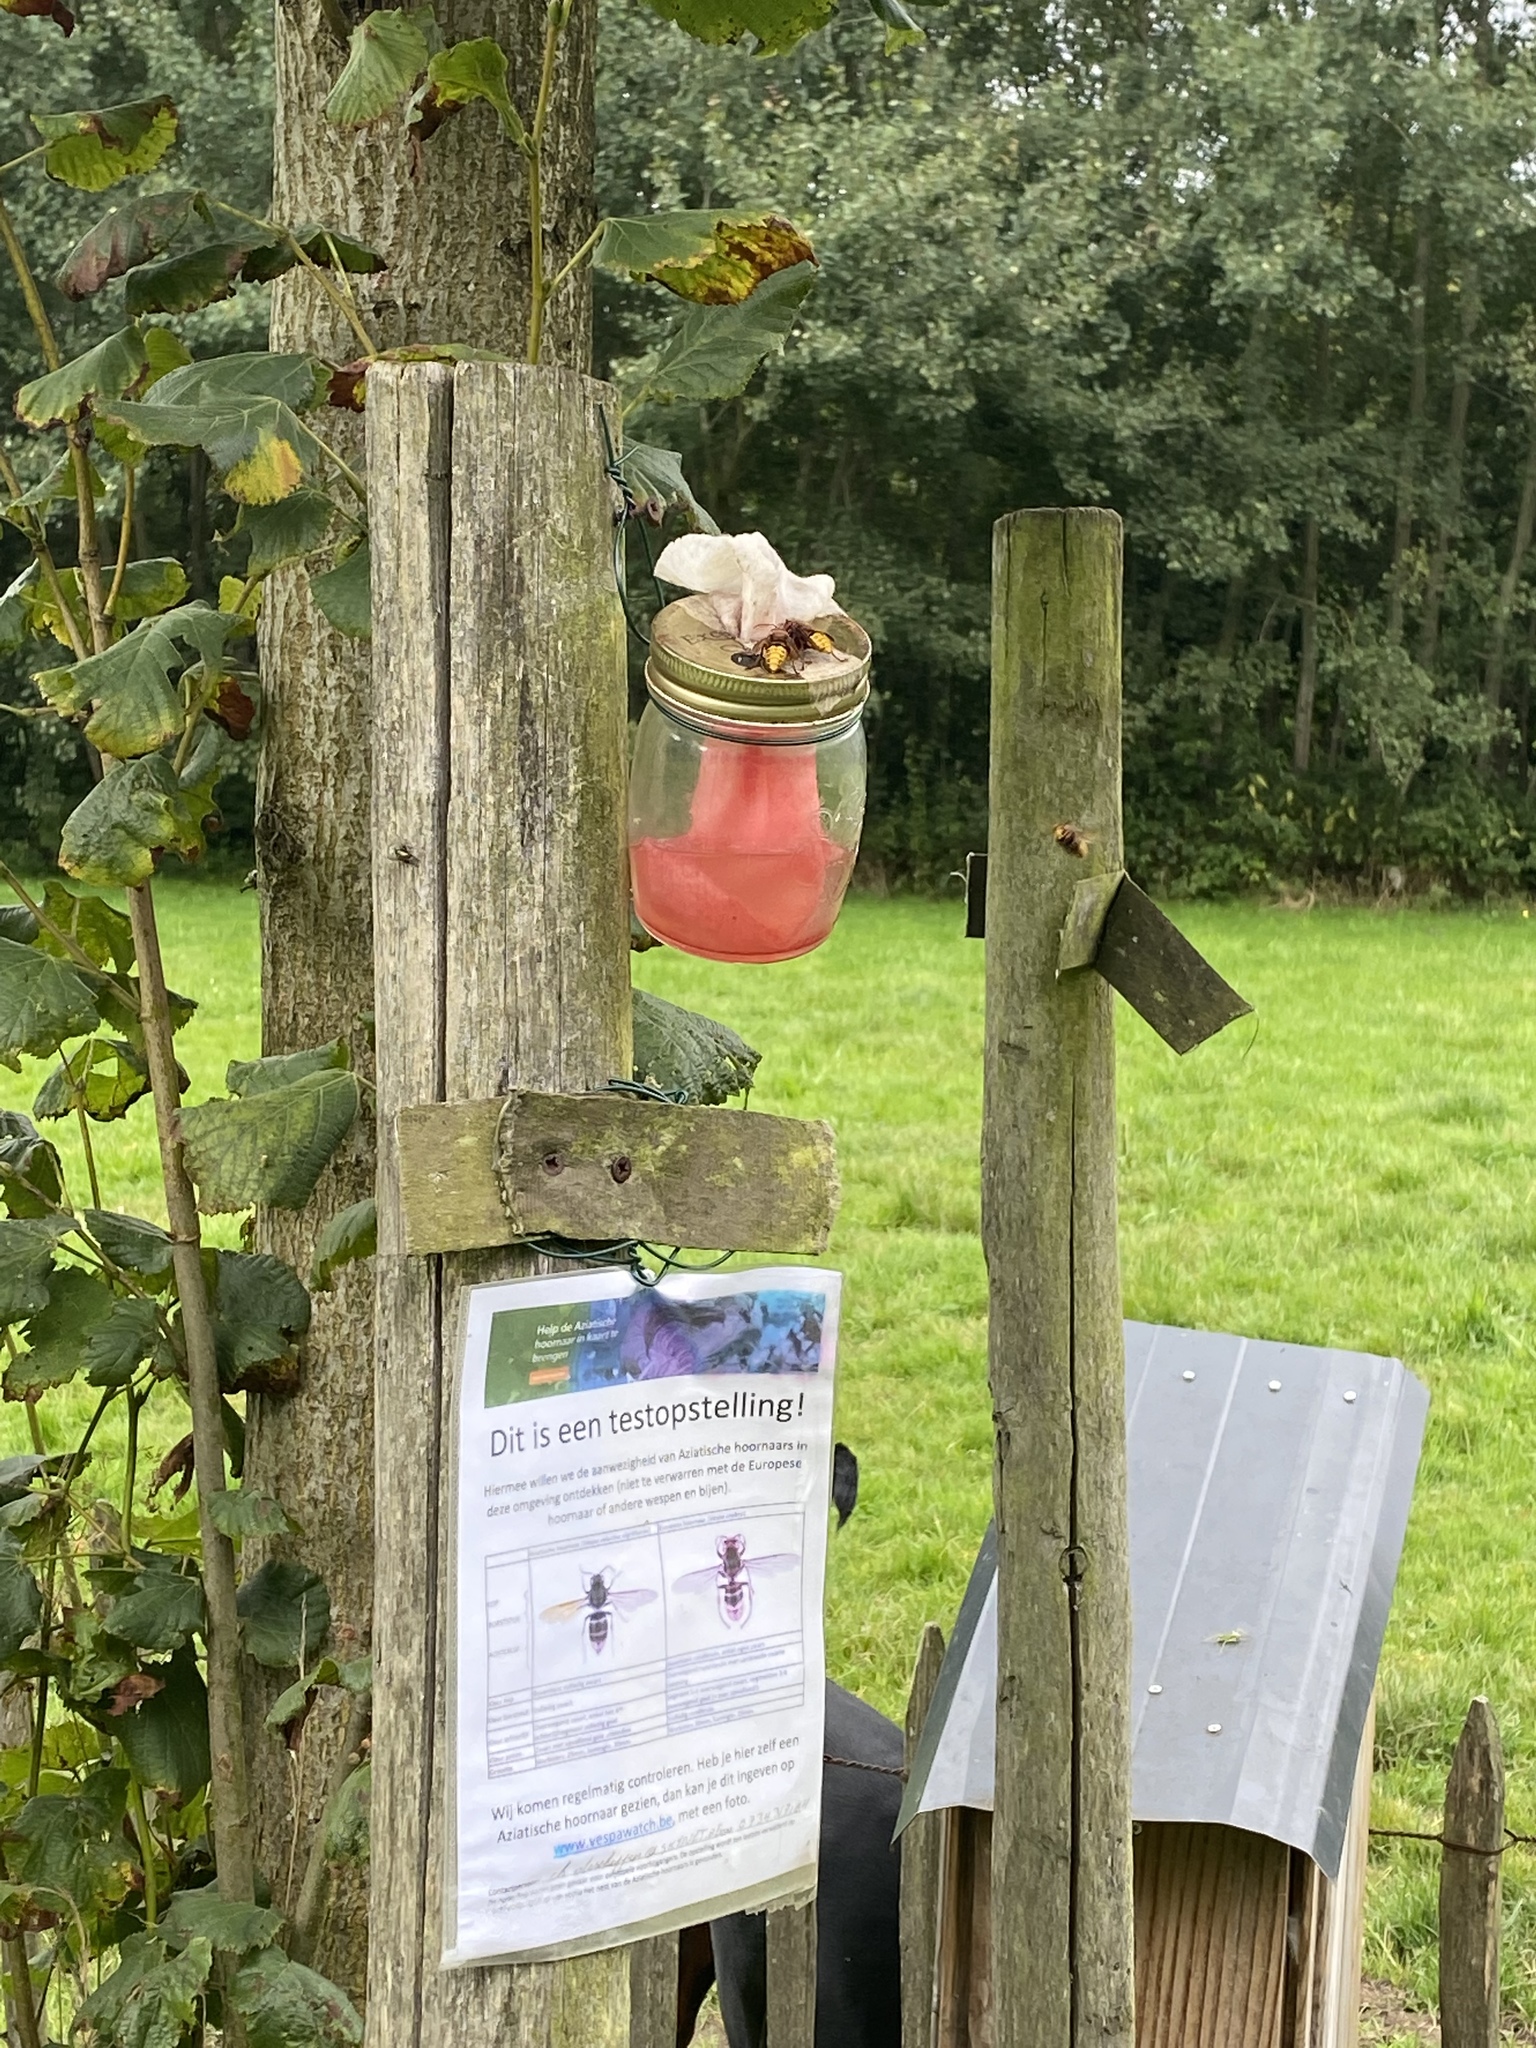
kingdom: Animalia
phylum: Arthropoda
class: Insecta
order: Hymenoptera
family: Vespidae
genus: Vespa
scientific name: Vespa crabro
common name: Hornet
